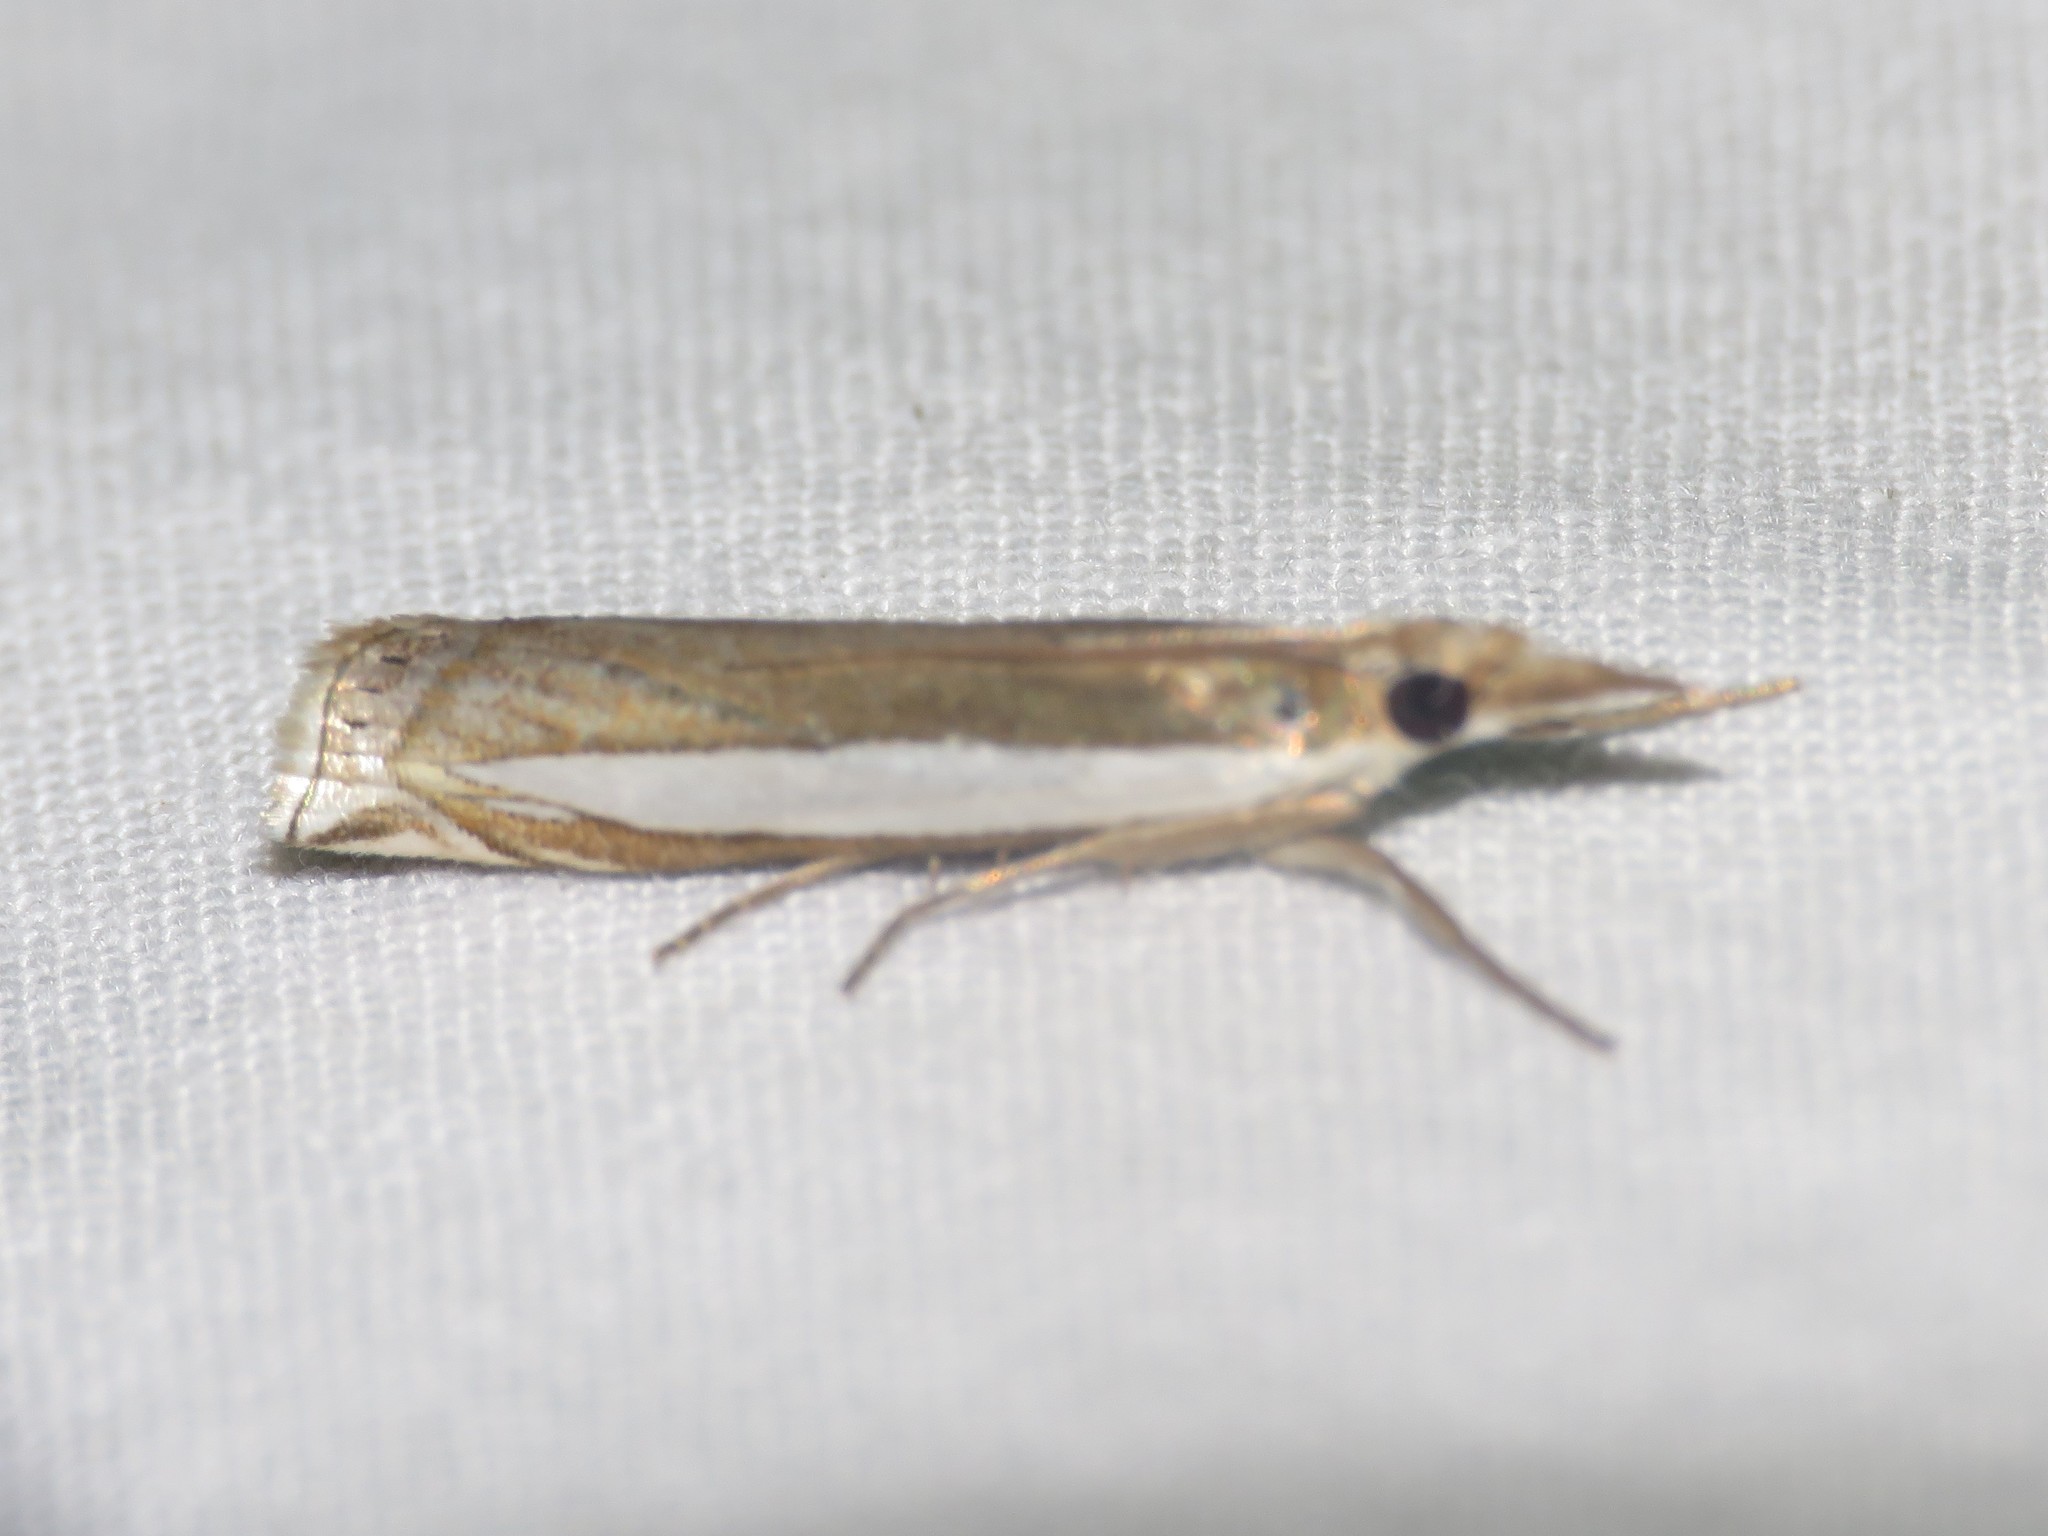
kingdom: Animalia
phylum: Arthropoda
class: Insecta
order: Lepidoptera
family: Crambidae
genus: Crambus
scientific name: Crambus leachellus
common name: Leach's grass-veneer
